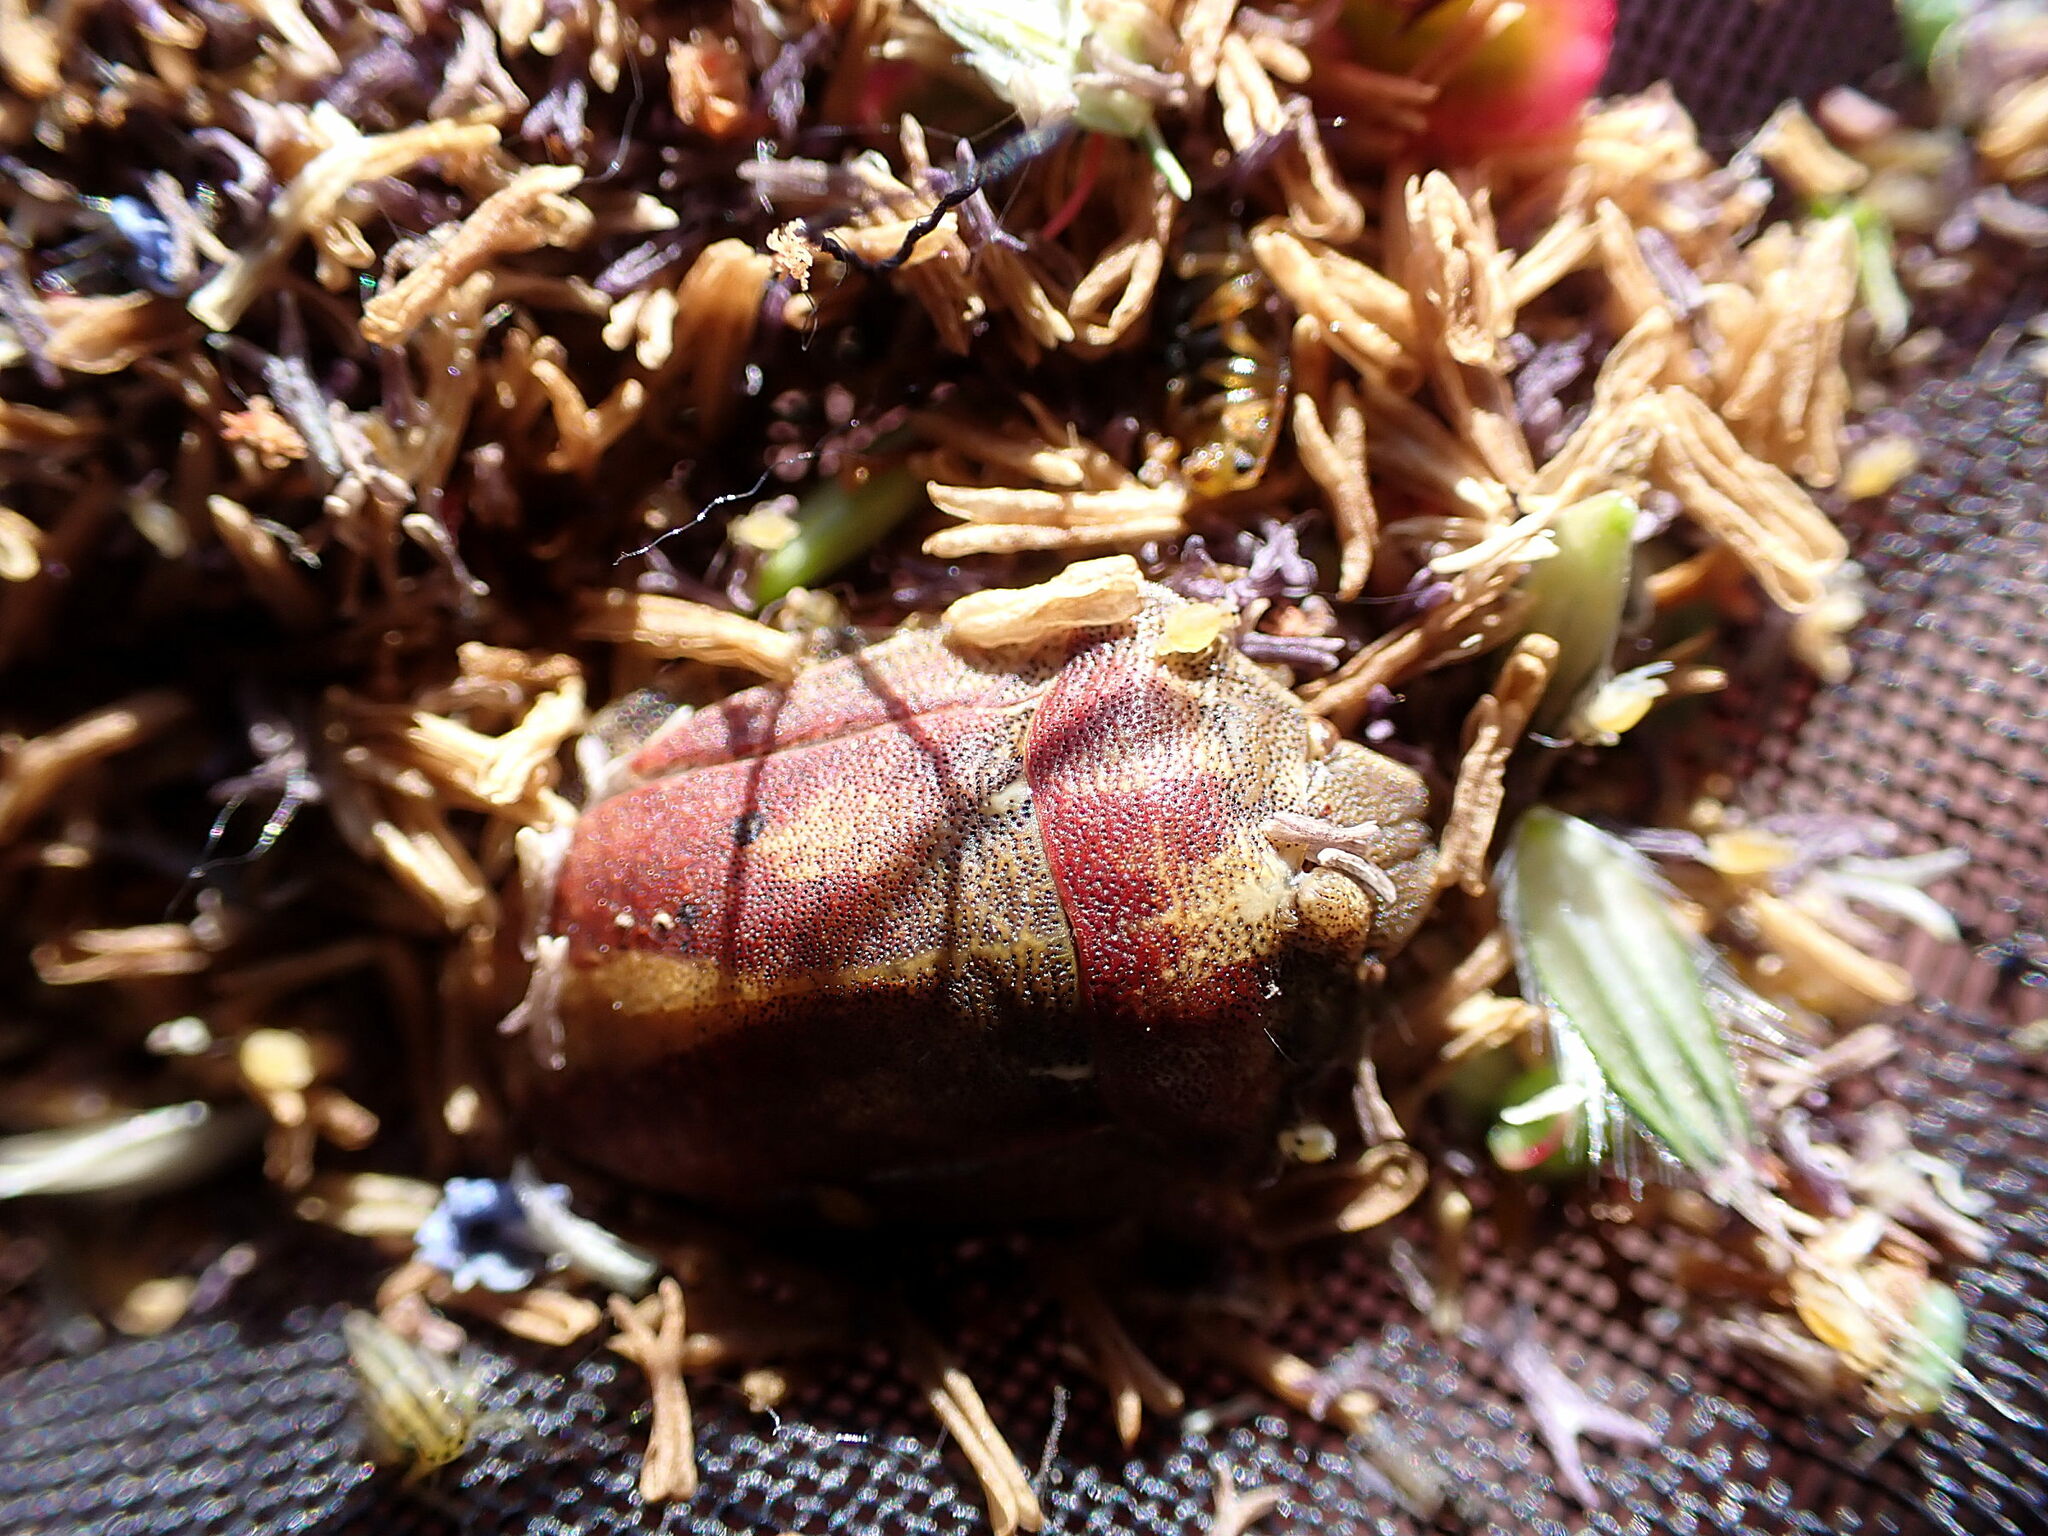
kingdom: Animalia
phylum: Arthropoda
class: Insecta
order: Hemiptera
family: Scutelleridae
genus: Eurygaster
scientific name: Eurygaster testudinaria
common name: Tortoise bug
